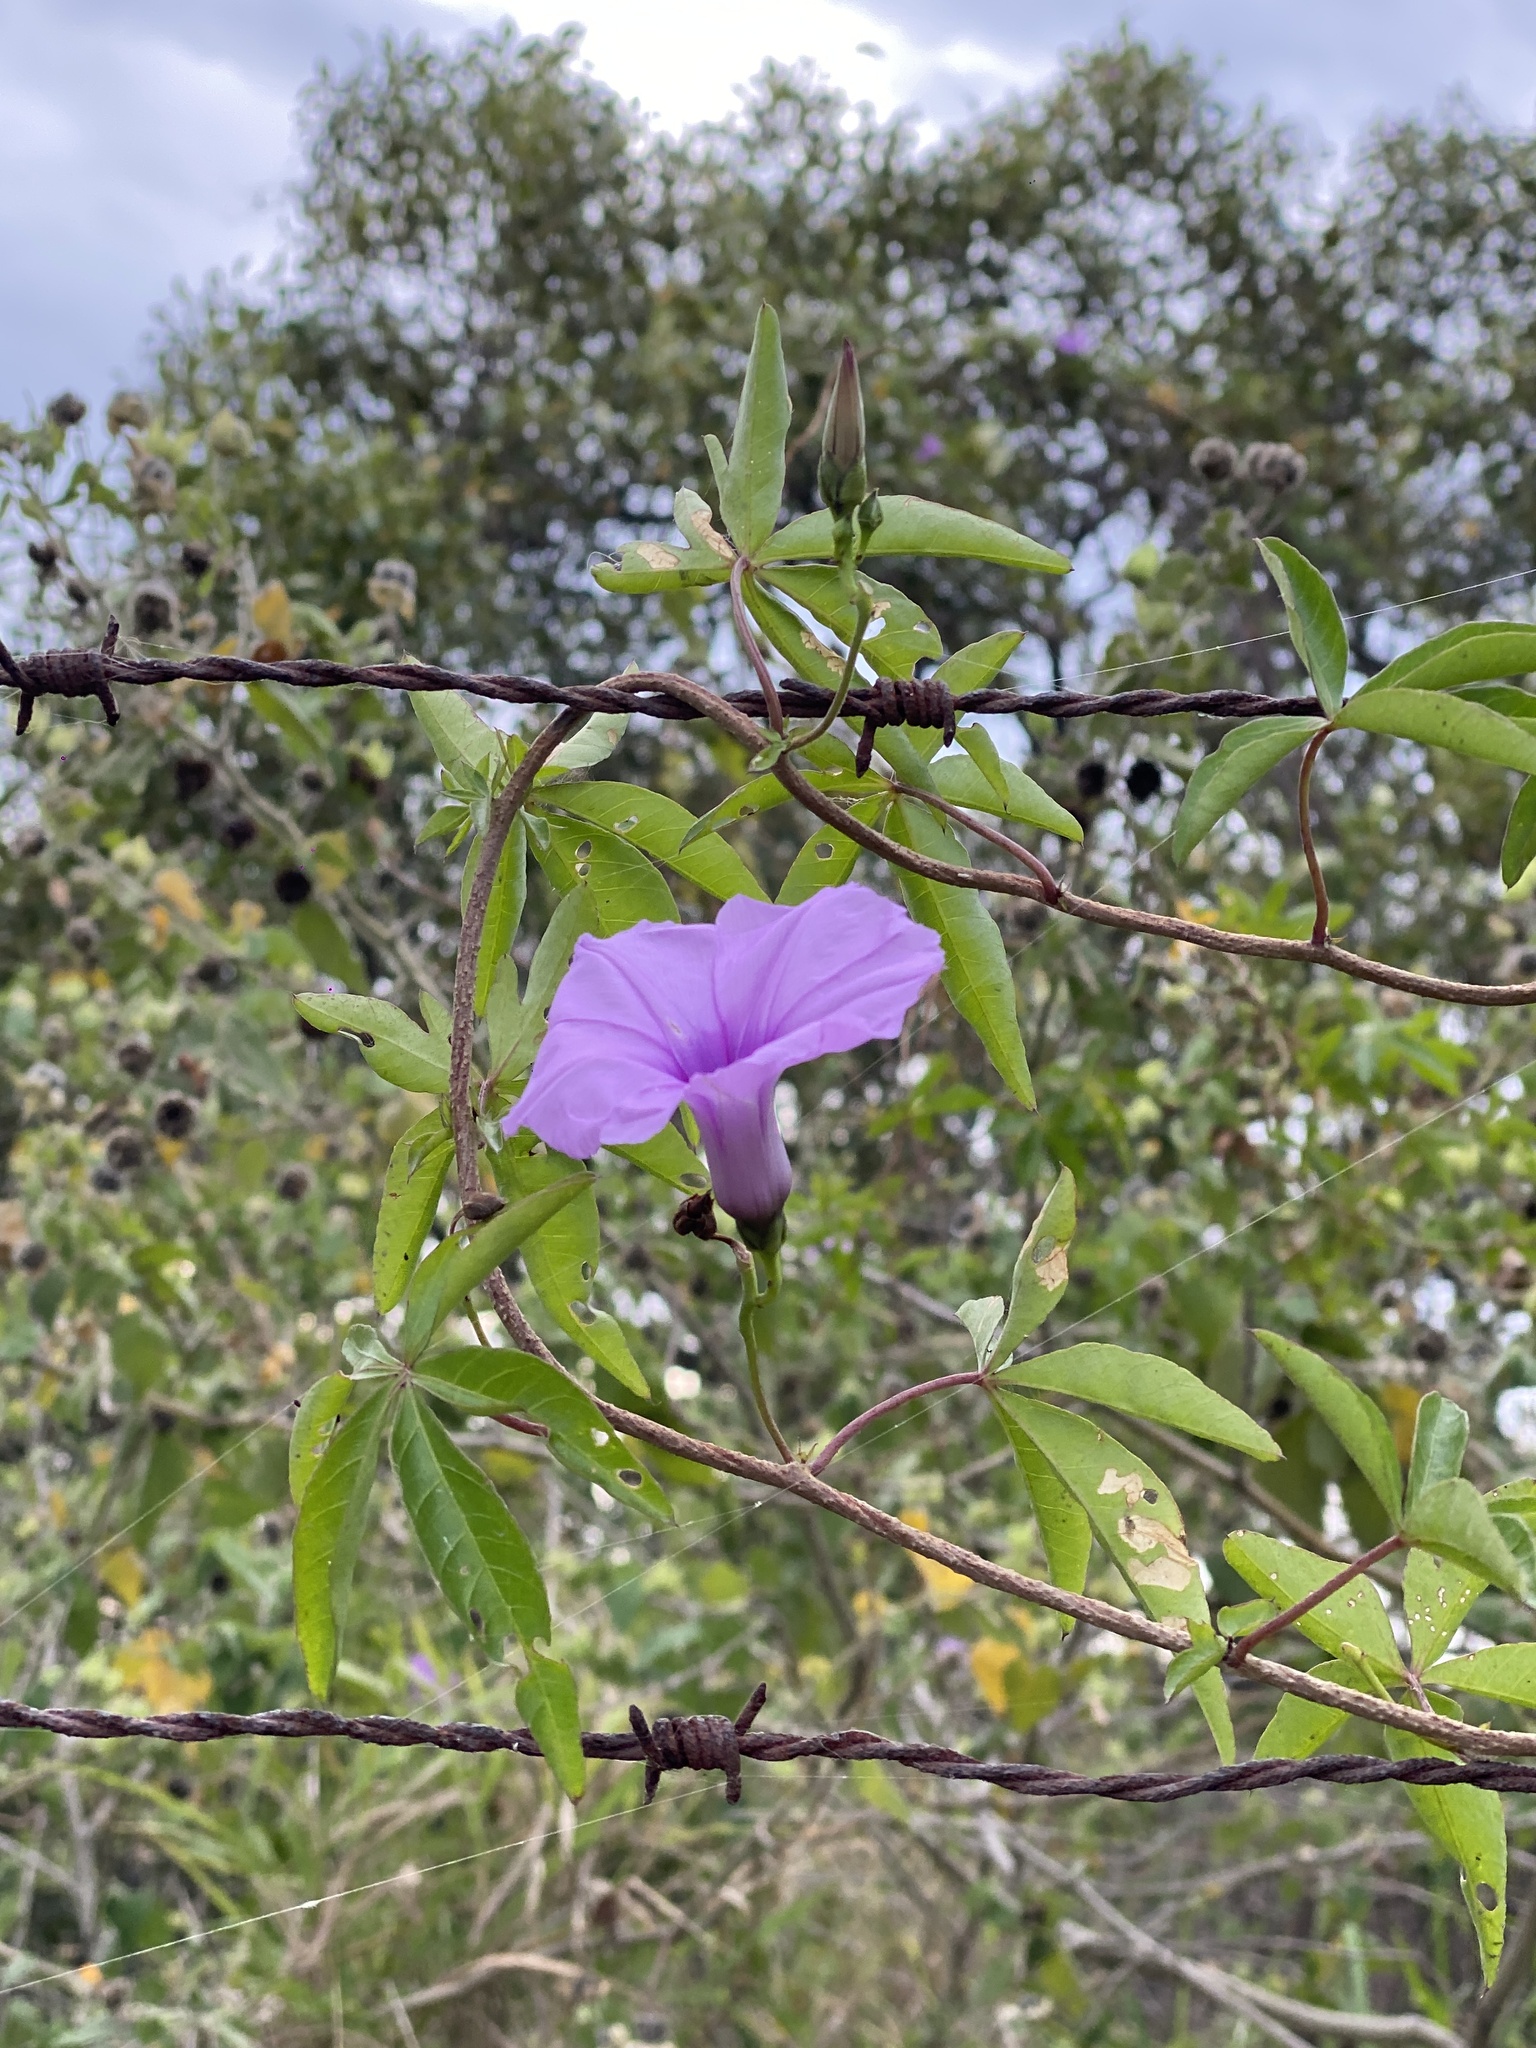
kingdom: Plantae
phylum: Tracheophyta
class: Magnoliopsida
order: Solanales
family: Convolvulaceae
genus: Ipomoea
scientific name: Ipomoea cairica
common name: Mile a minute vine
